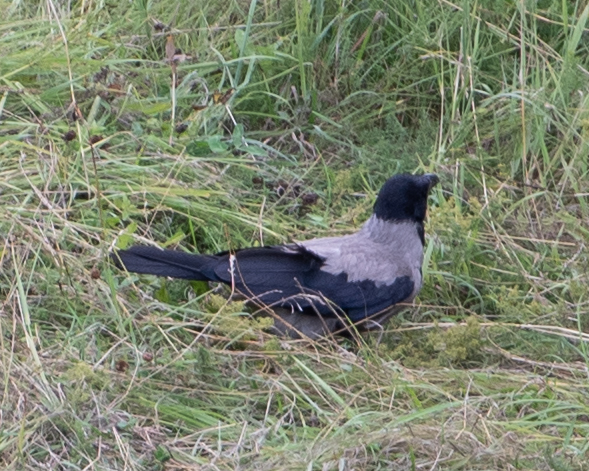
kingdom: Animalia
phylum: Chordata
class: Aves
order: Passeriformes
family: Corvidae
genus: Corvus
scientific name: Corvus cornix
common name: Hooded crow
